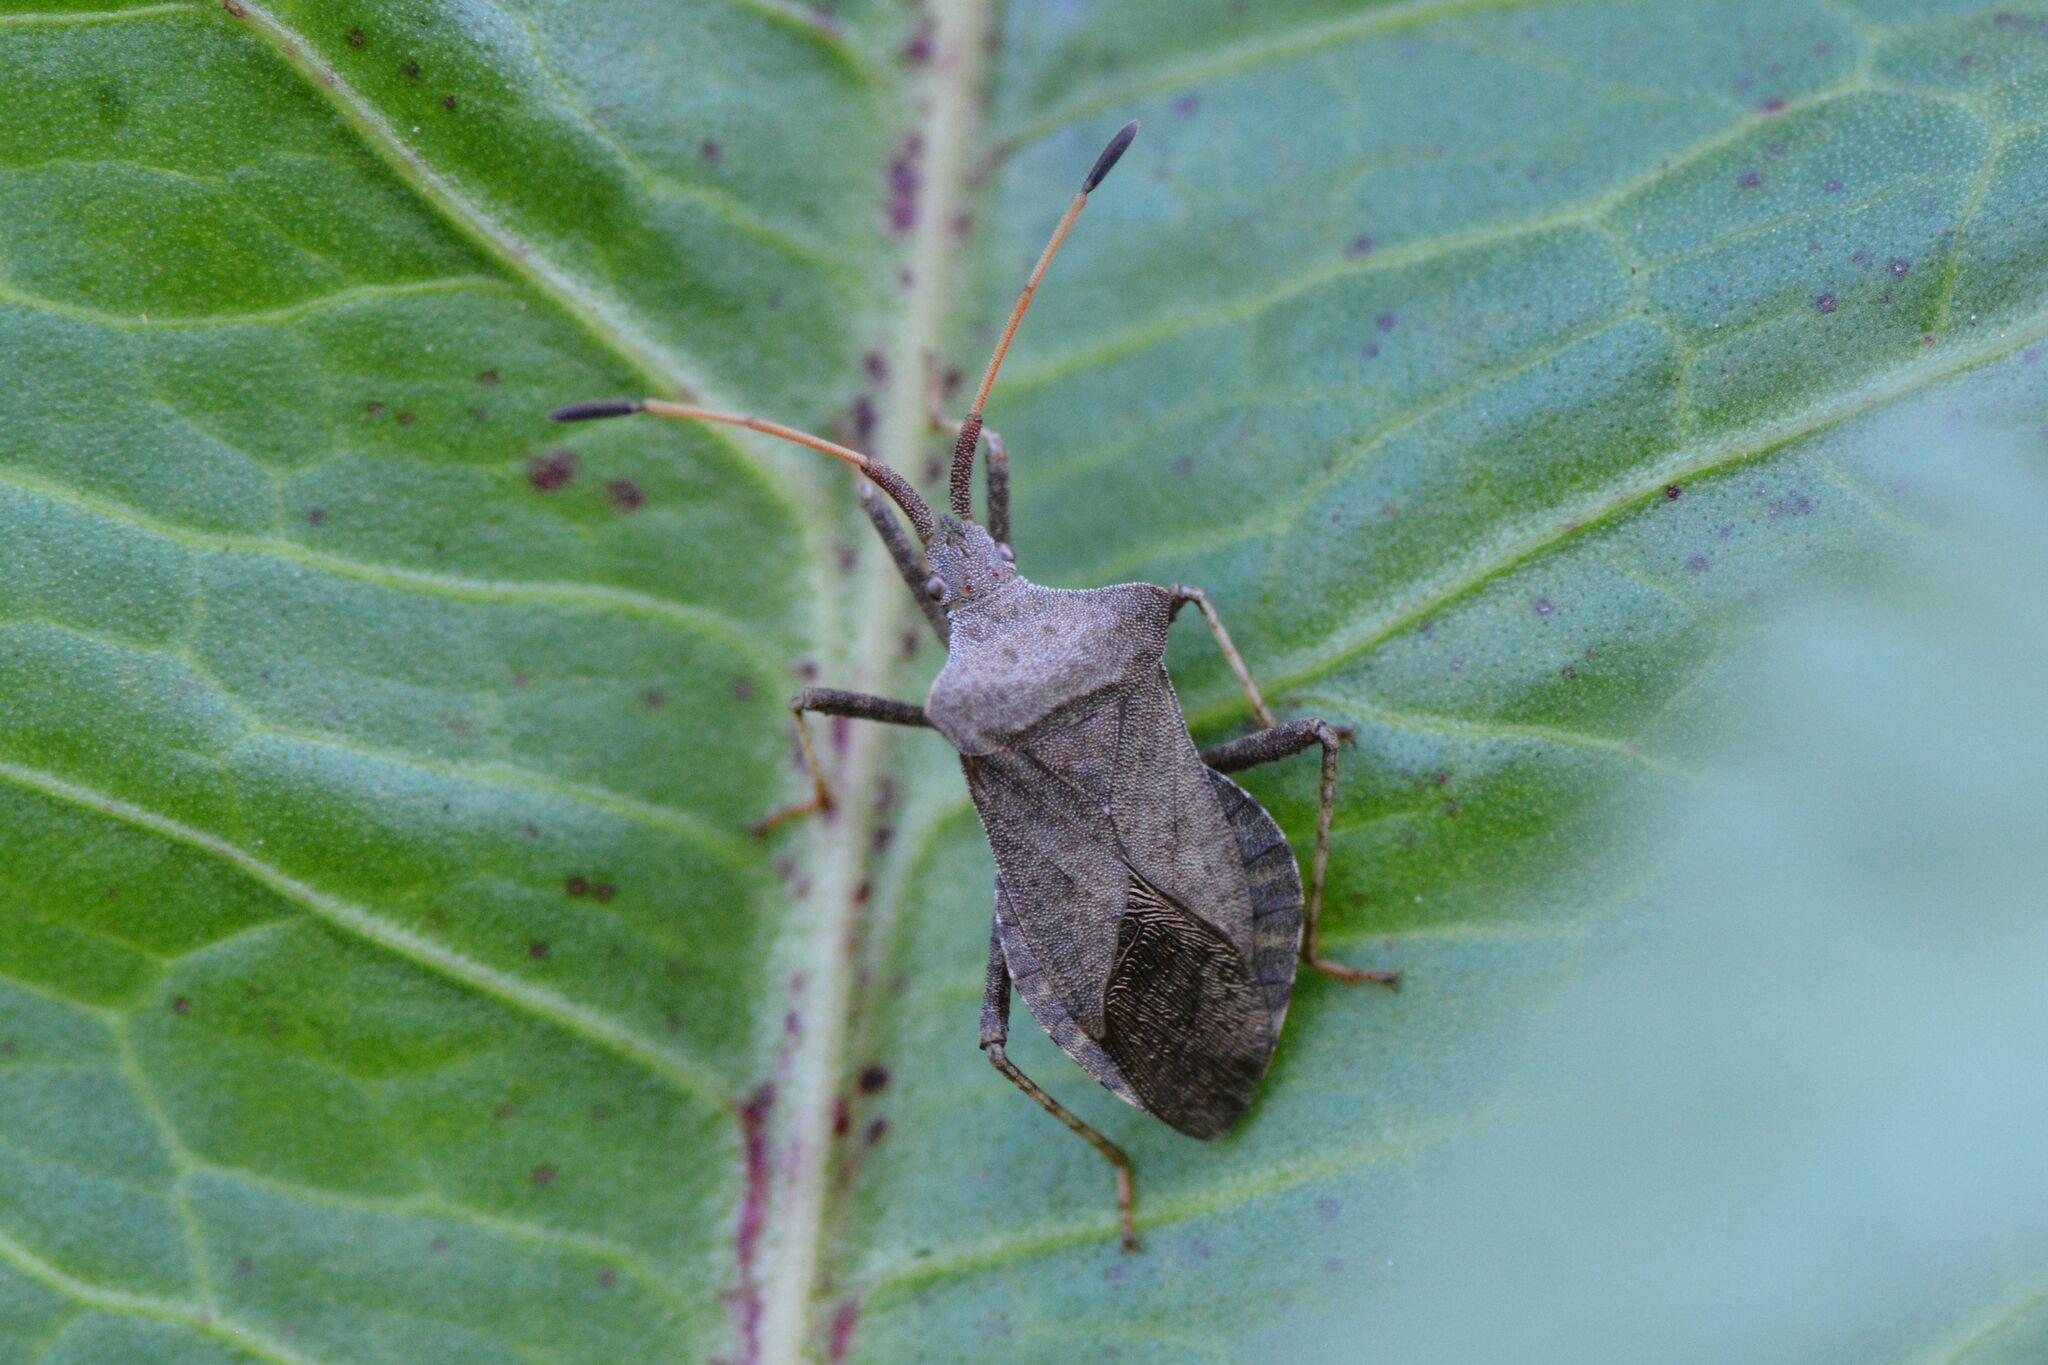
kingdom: Animalia
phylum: Arthropoda
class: Insecta
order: Hemiptera
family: Coreidae
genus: Coreus
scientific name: Coreus marginatus
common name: Dock bug
